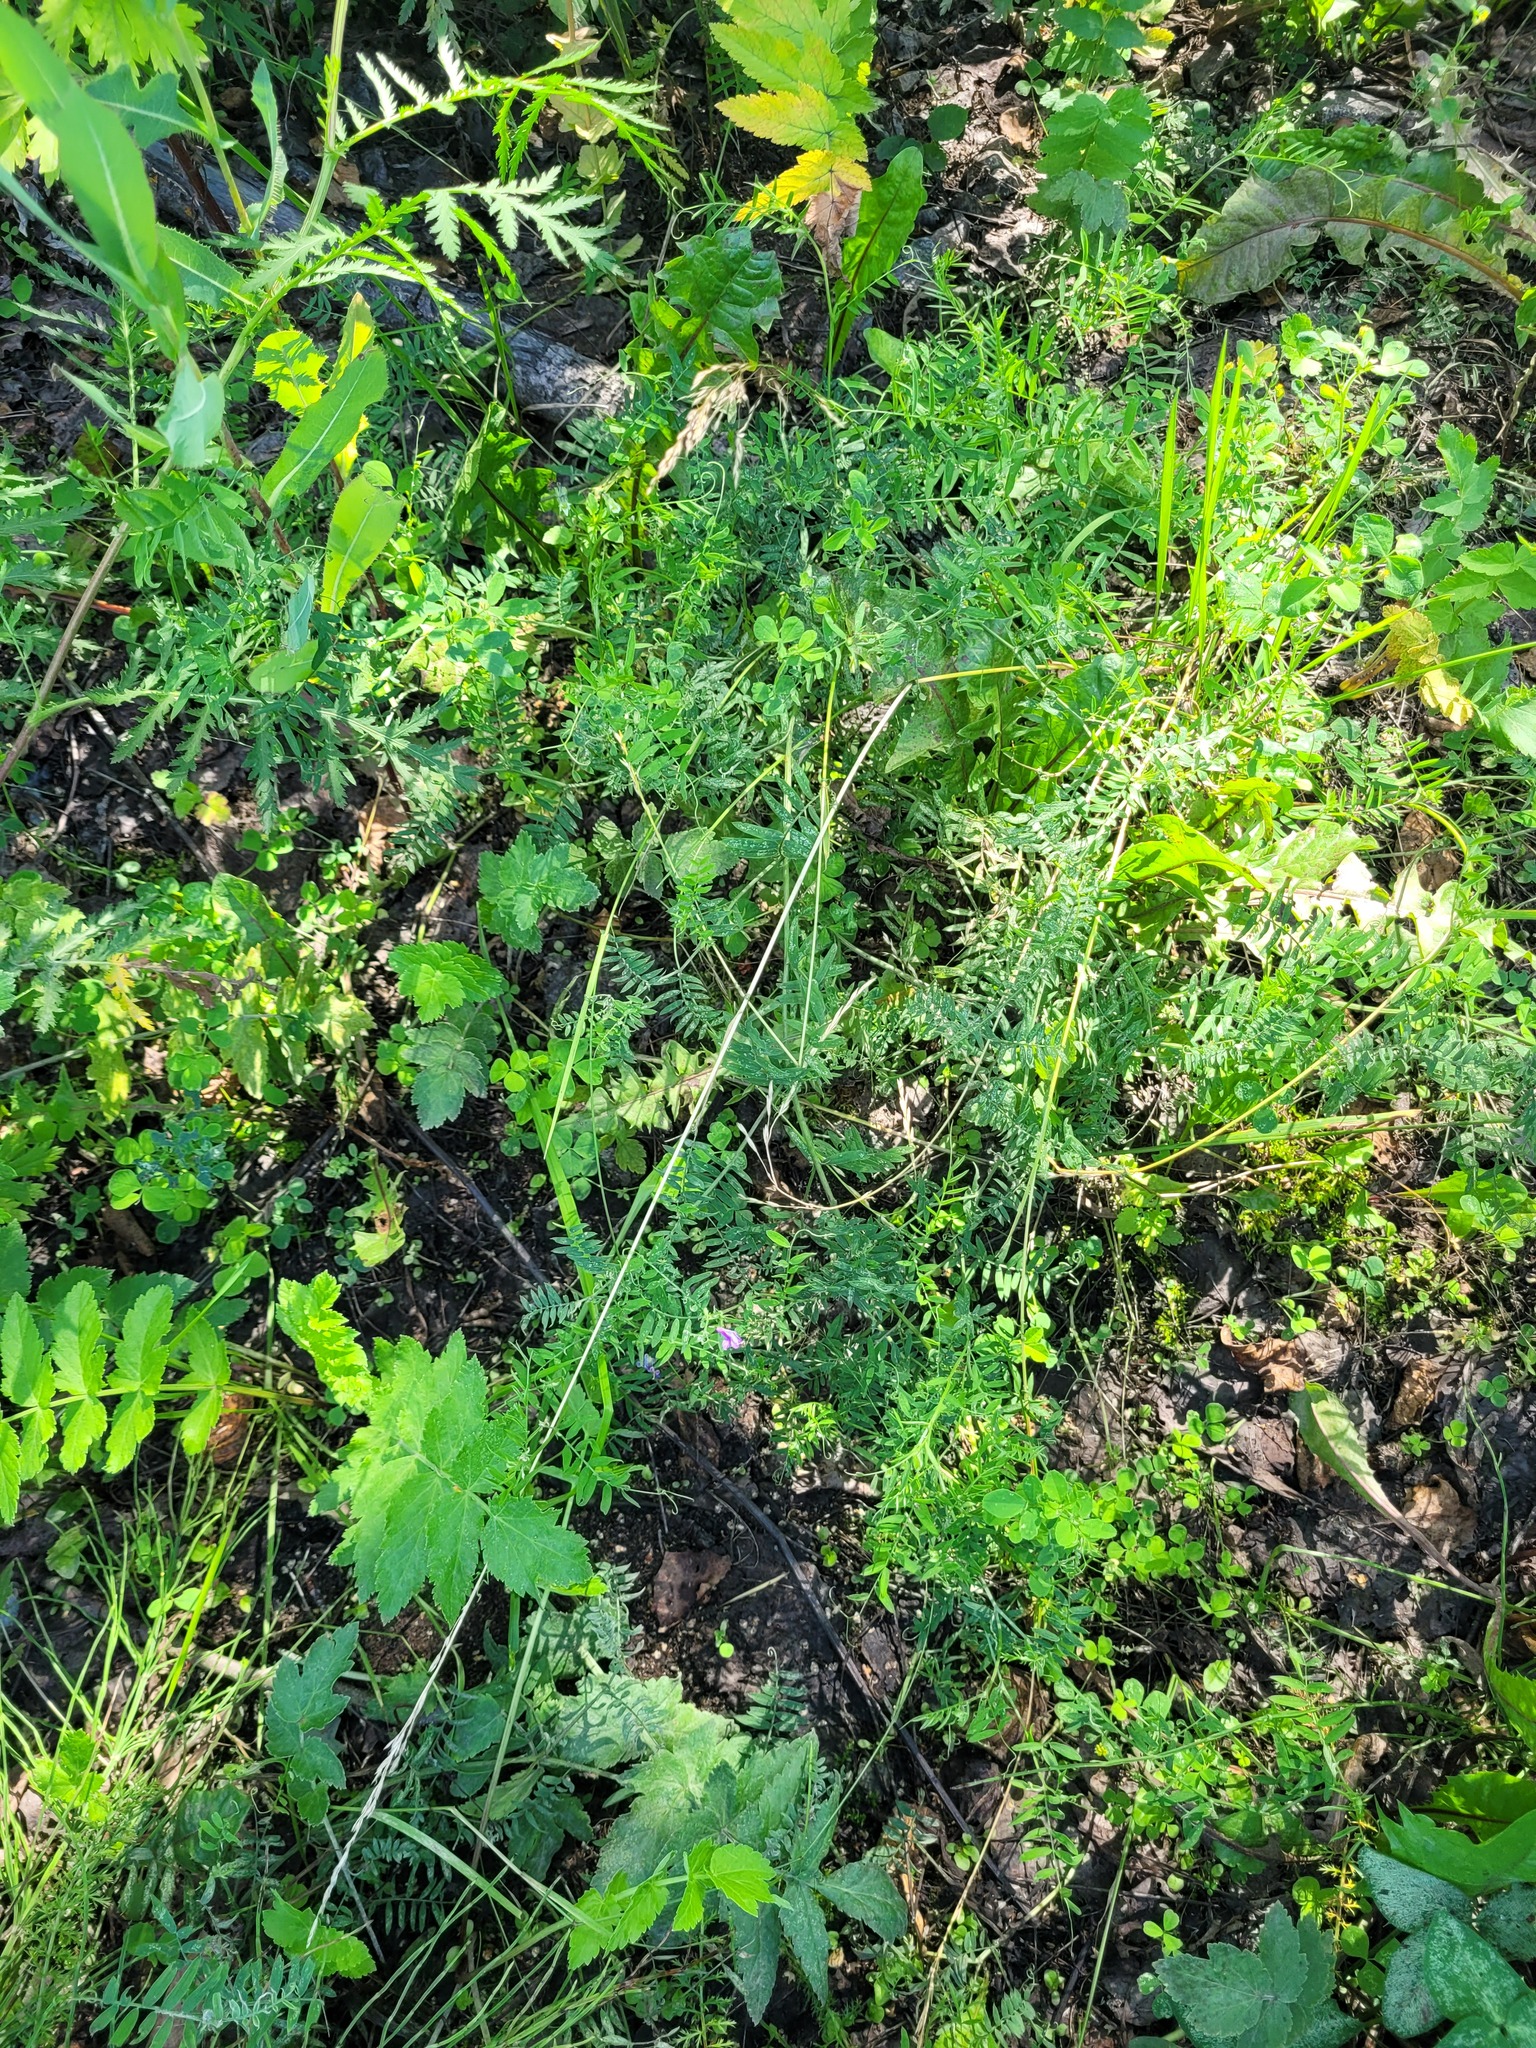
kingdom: Plantae
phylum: Tracheophyta
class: Magnoliopsida
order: Fabales
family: Fabaceae
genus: Vicia
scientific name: Vicia cracca
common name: Bird vetch
